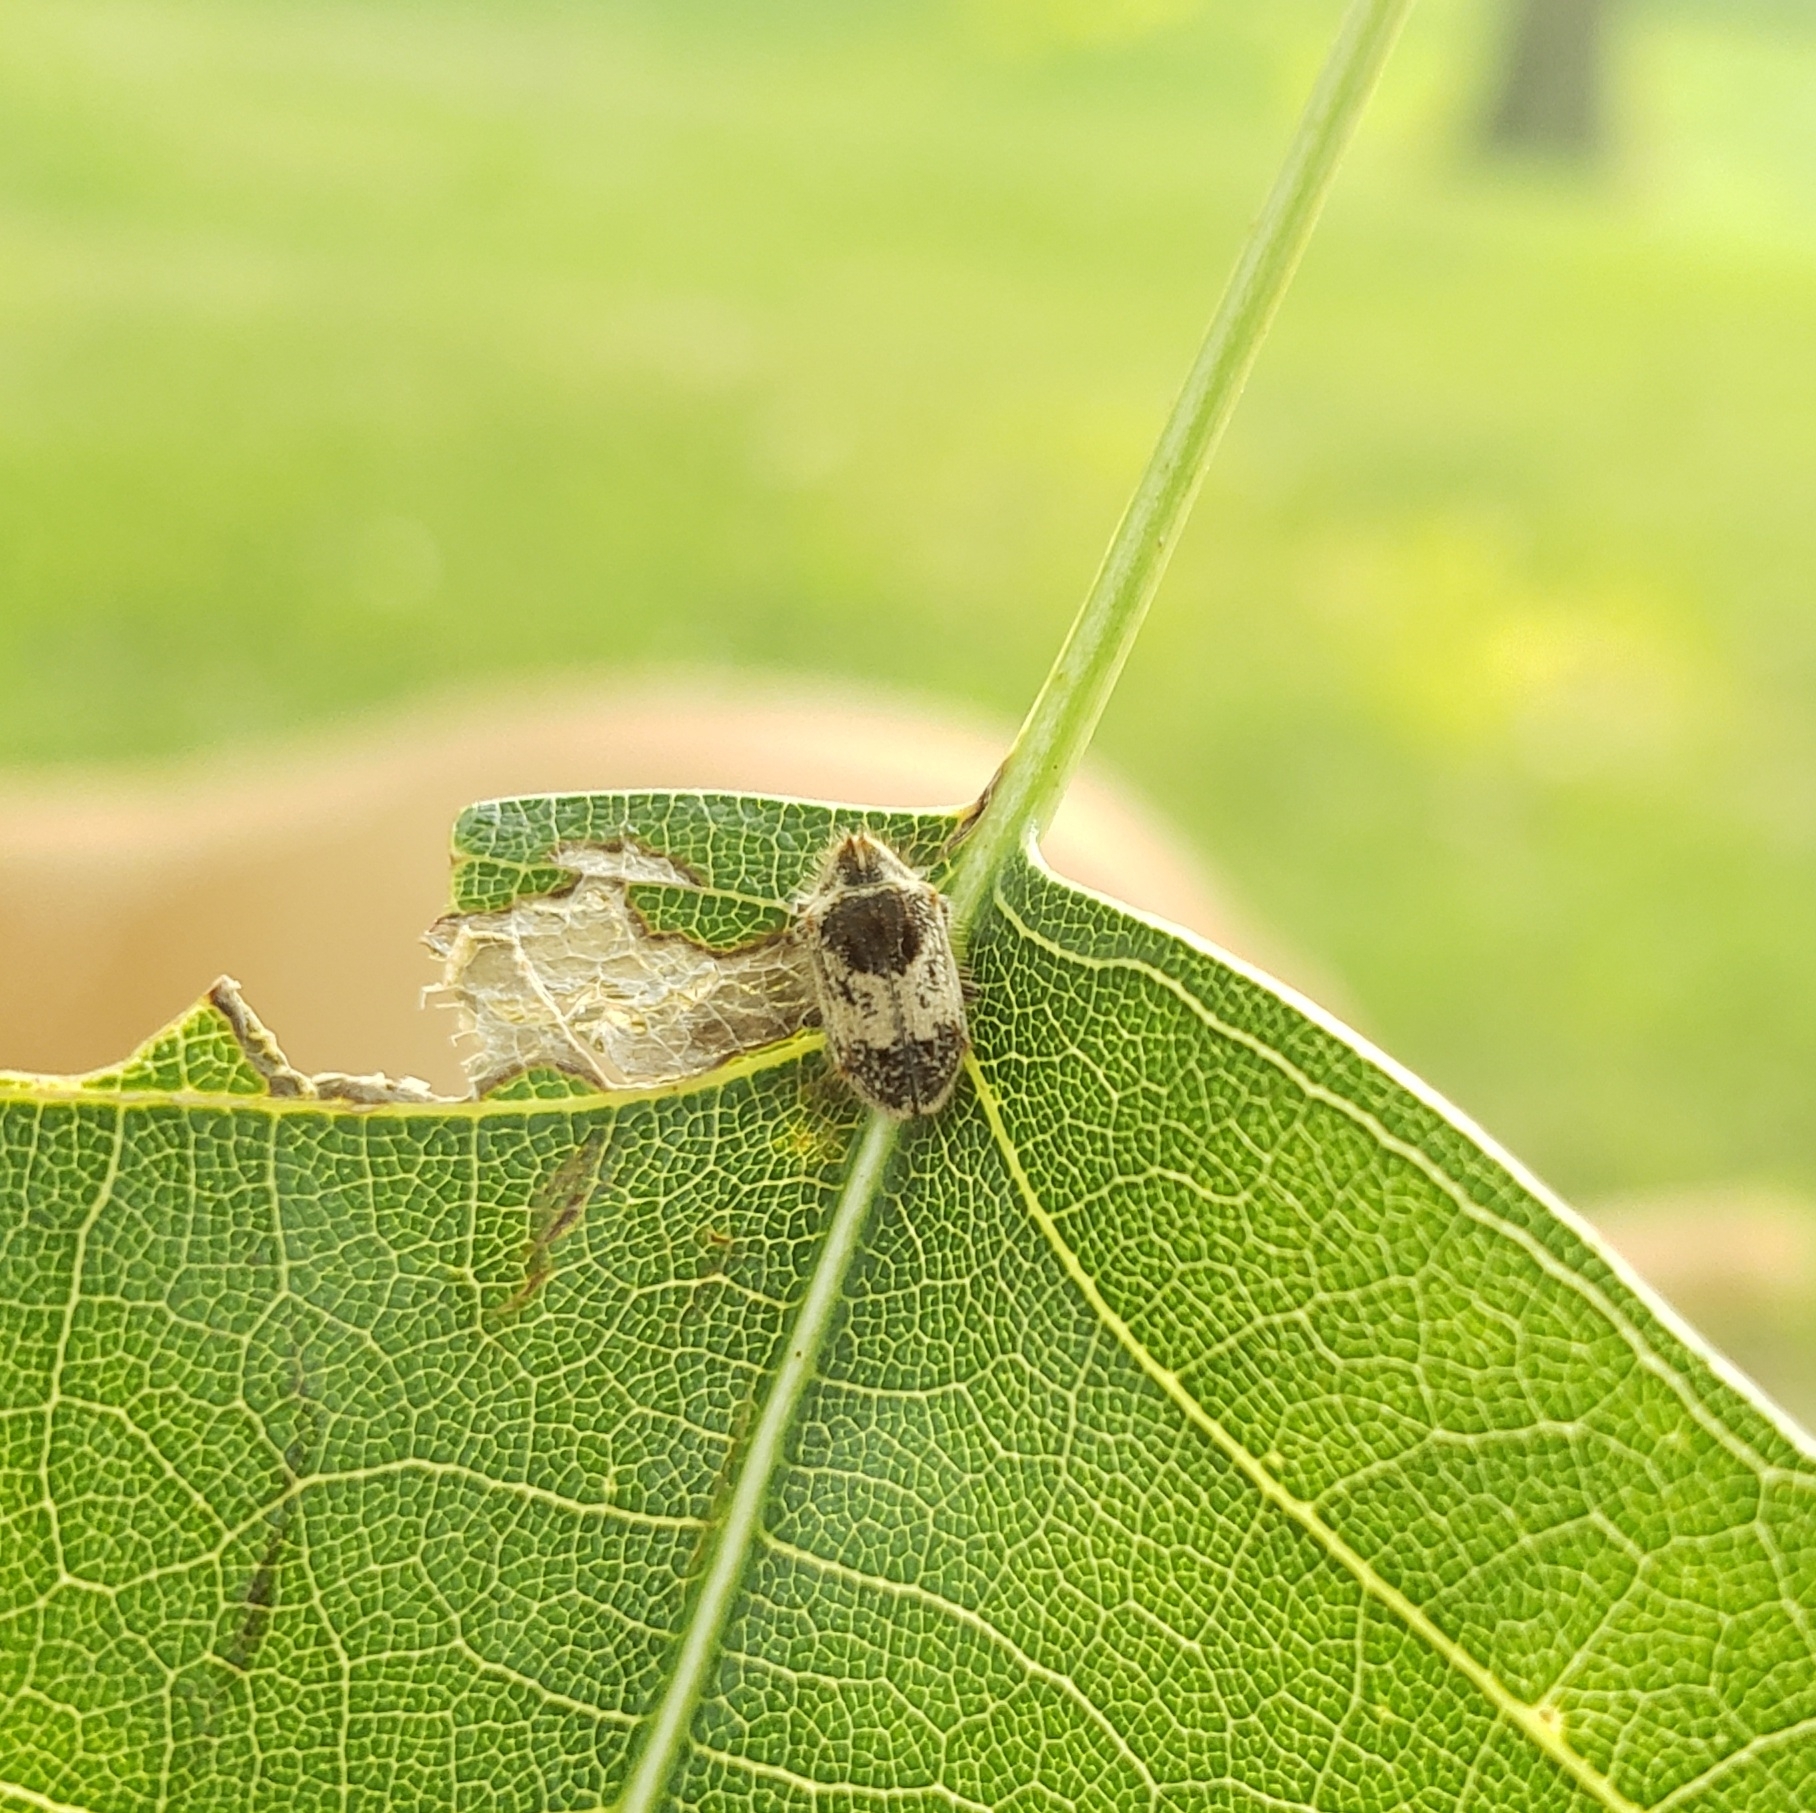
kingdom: Animalia
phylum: Arthropoda
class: Insecta
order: Coleoptera
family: Anobiidae
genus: Trichodesma
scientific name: Trichodesma gibbosa
